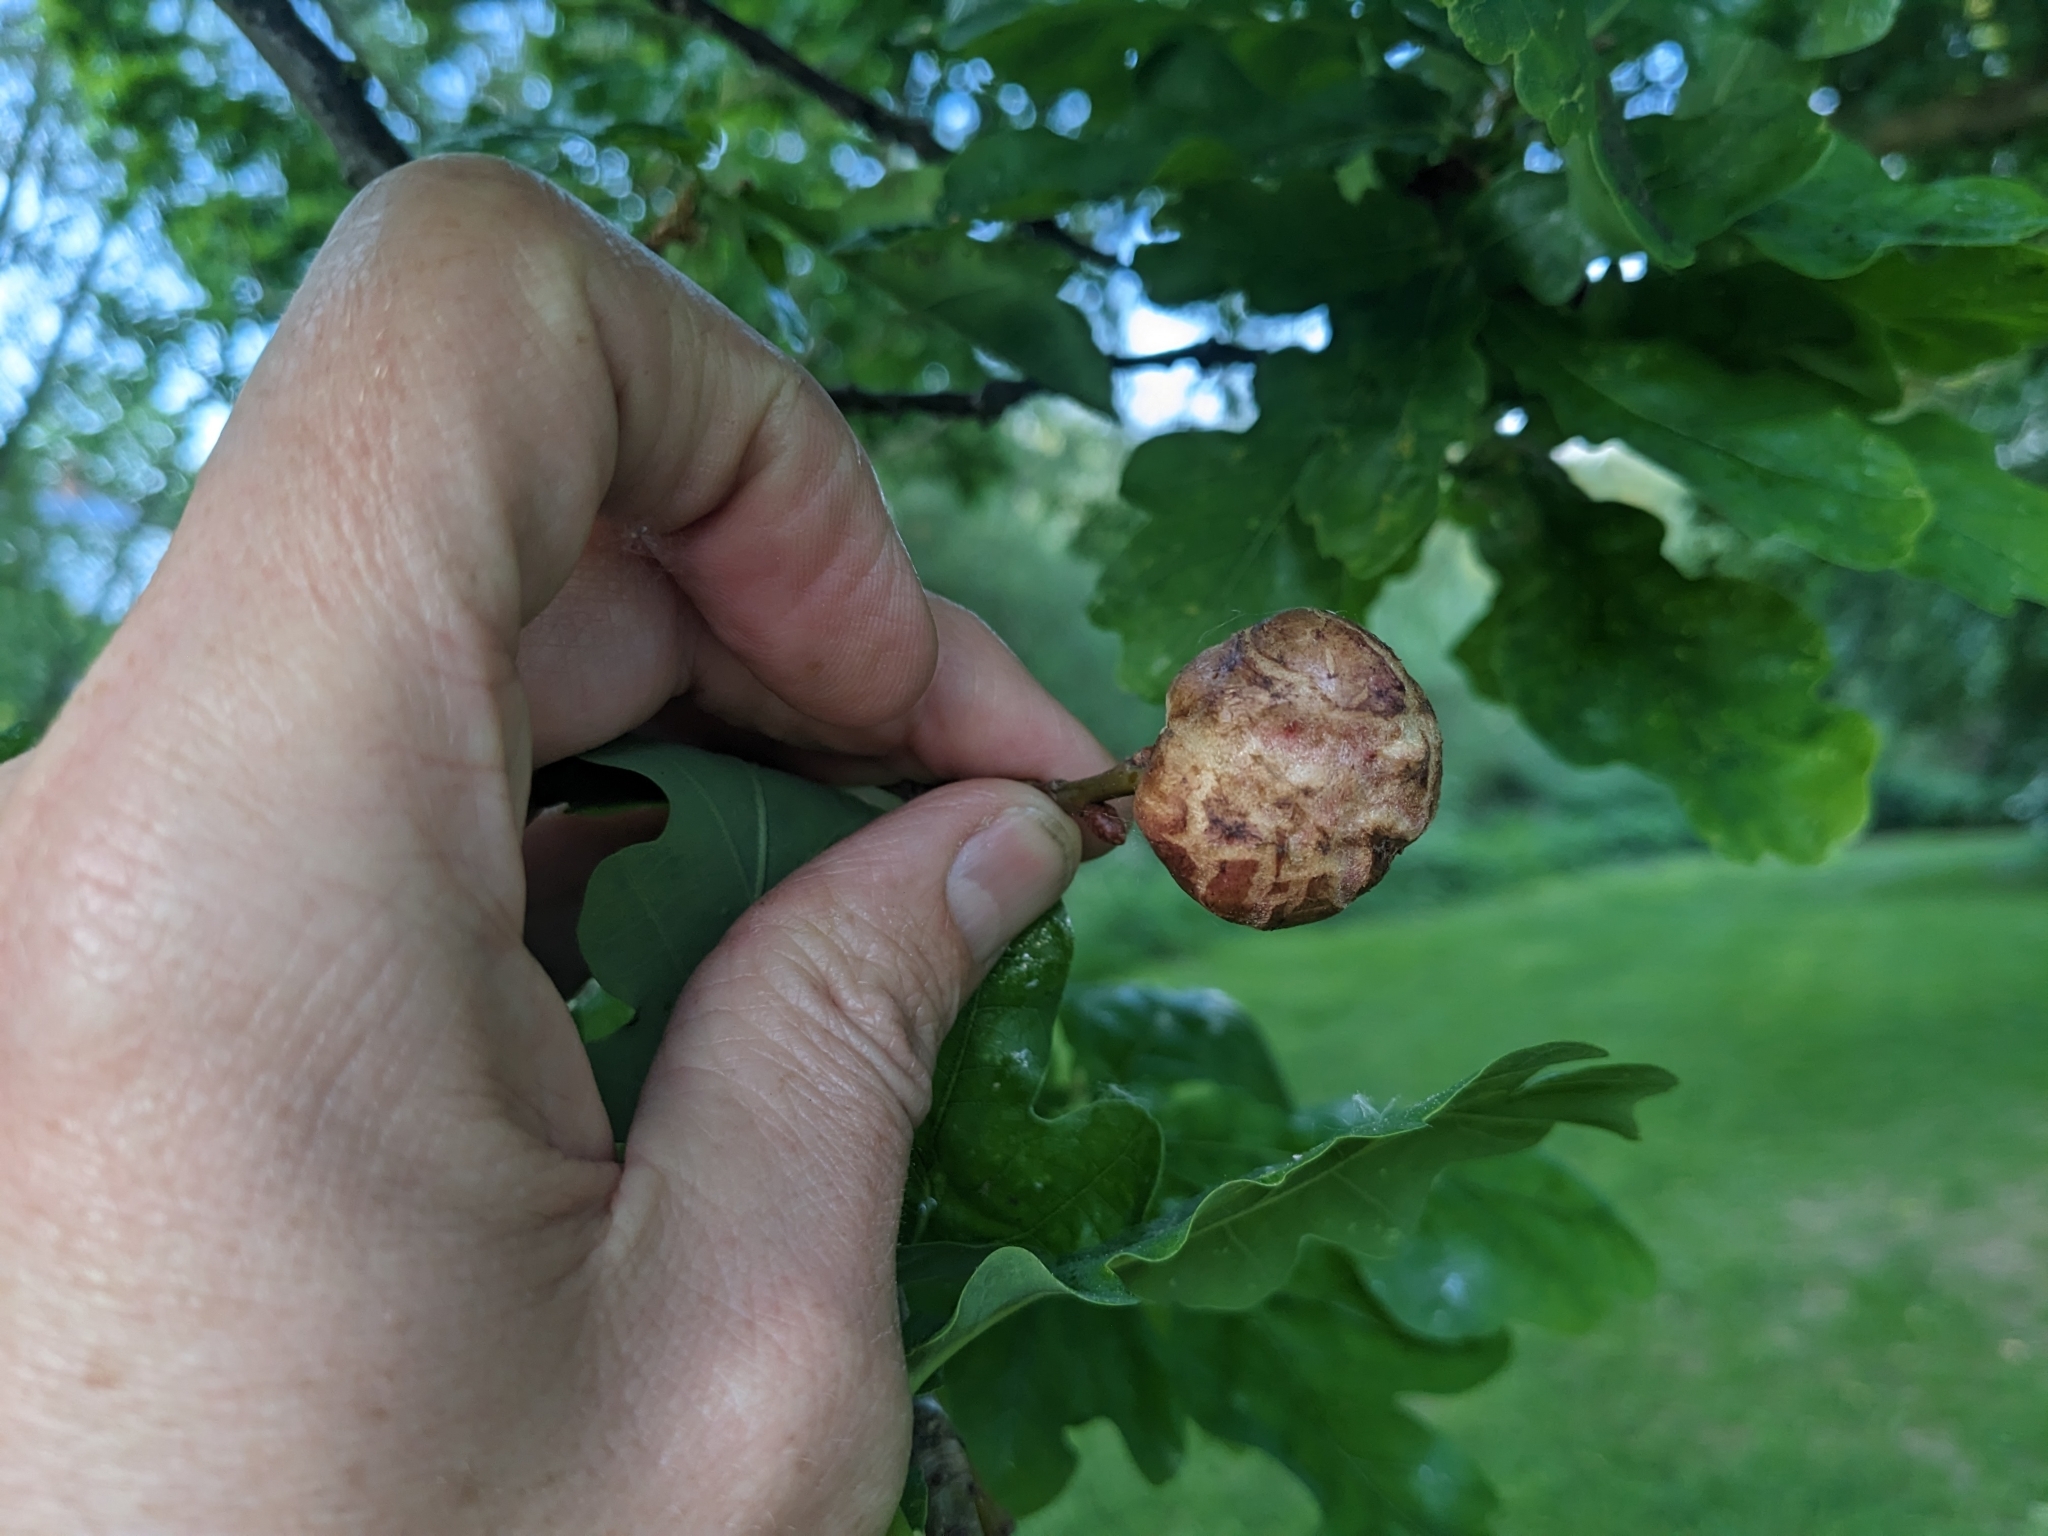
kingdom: Animalia
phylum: Arthropoda
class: Insecta
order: Hymenoptera
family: Cynipidae
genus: Biorhiza
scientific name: Biorhiza pallida
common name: Oak apple
